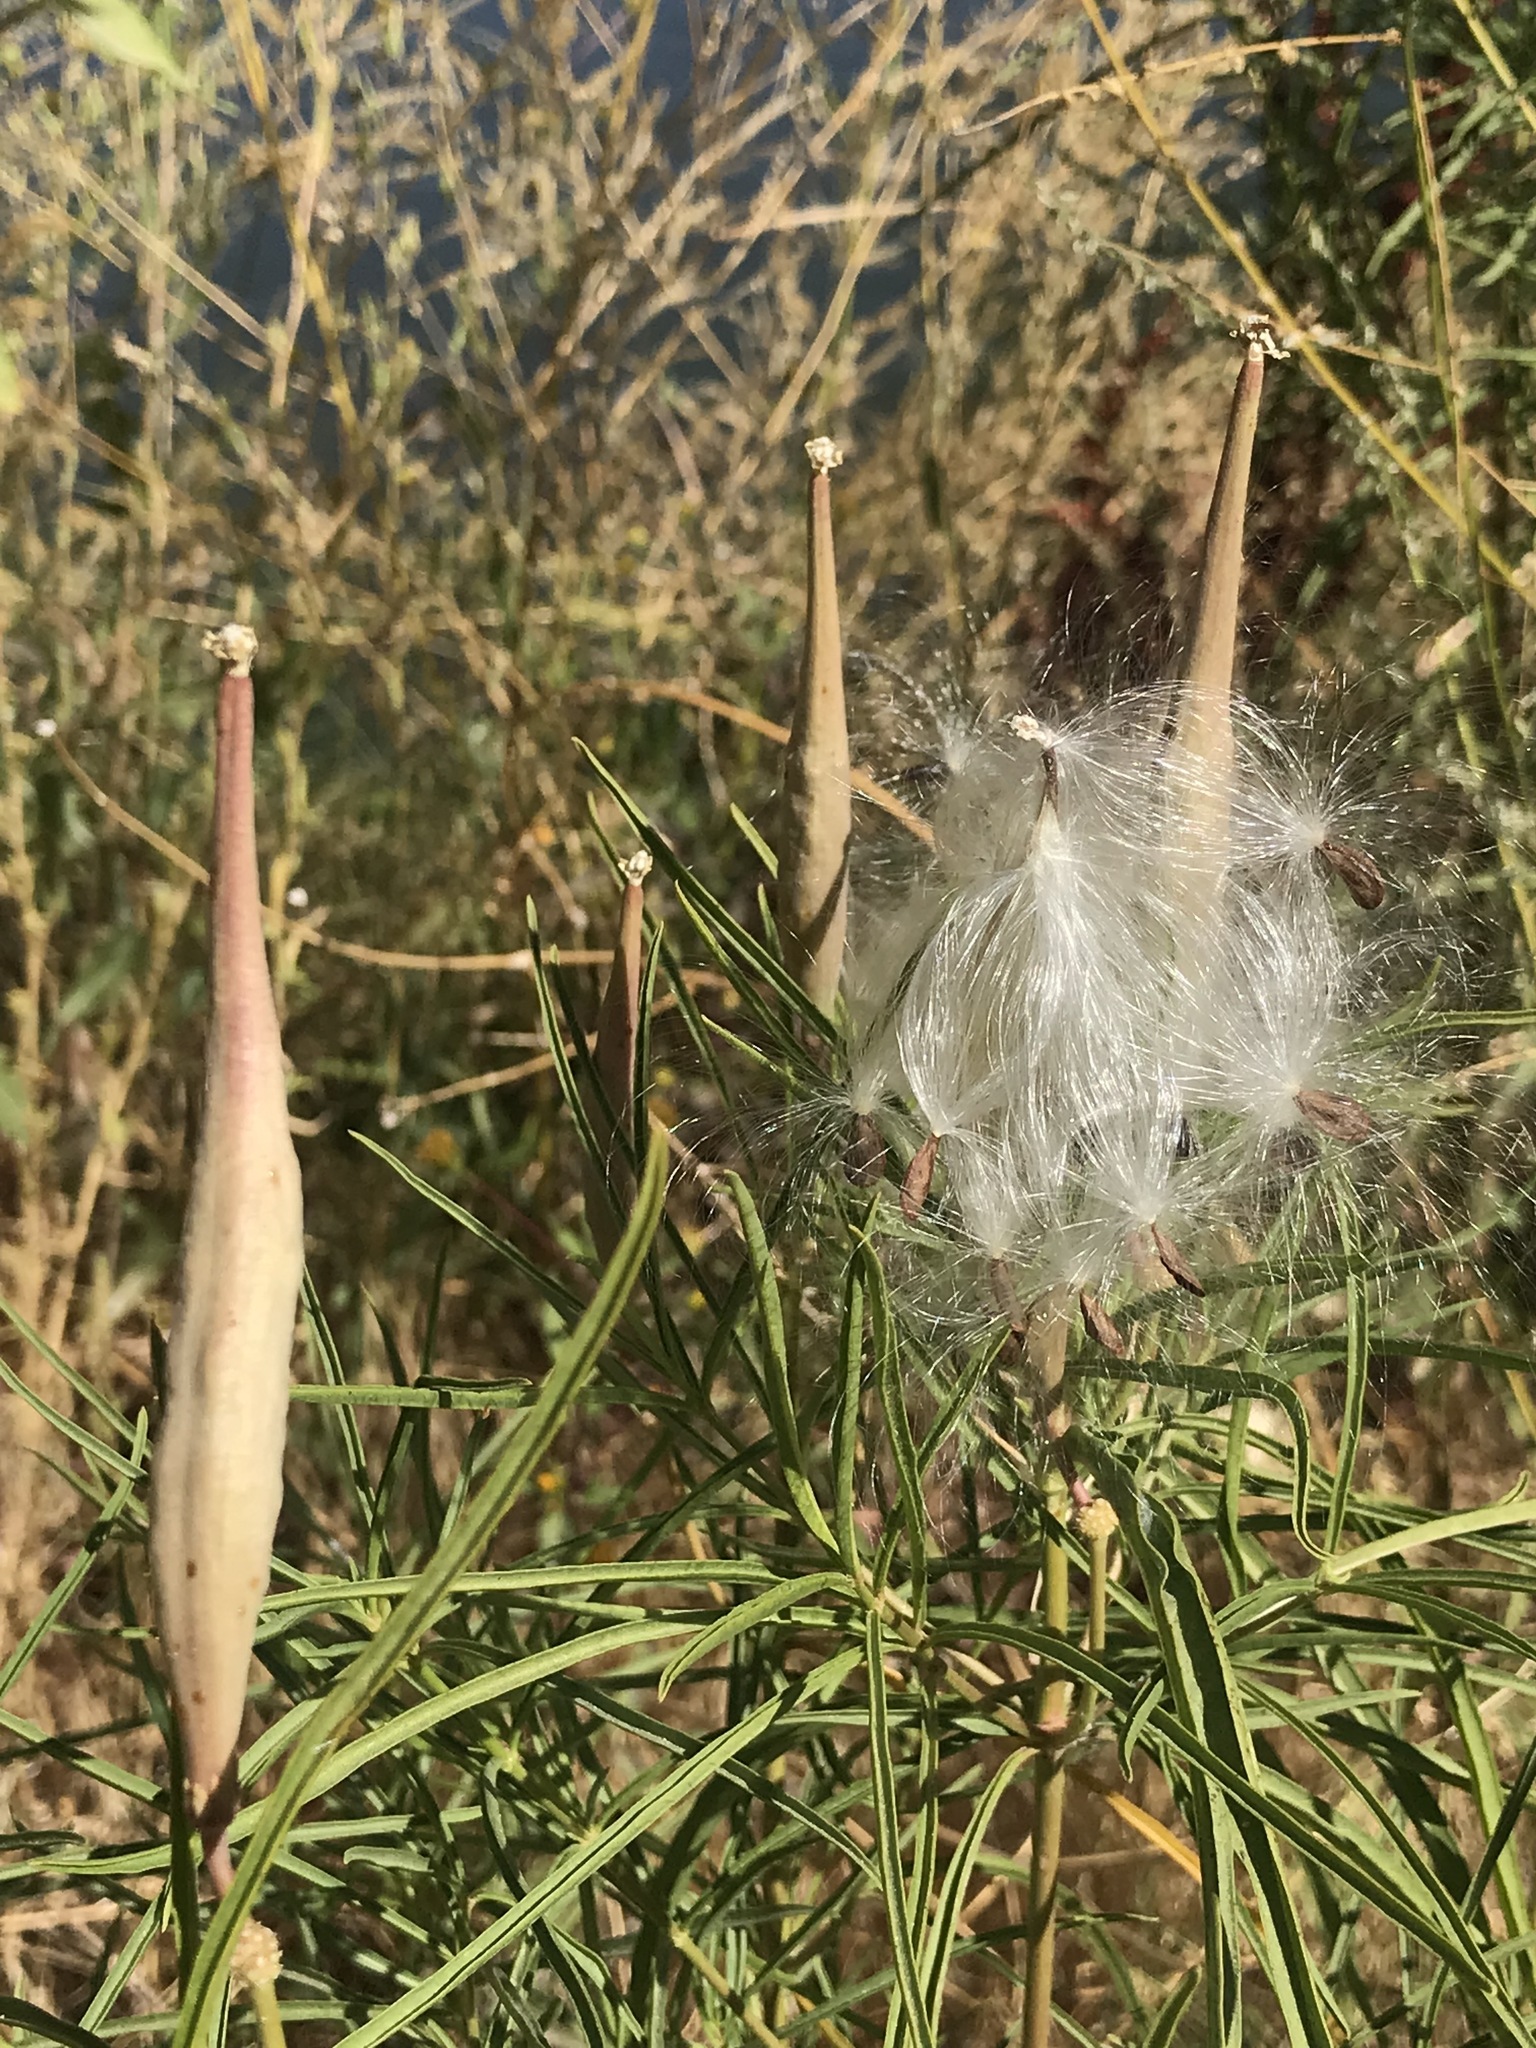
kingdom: Plantae
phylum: Tracheophyta
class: Magnoliopsida
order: Gentianales
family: Apocynaceae
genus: Asclepias
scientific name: Asclepias fascicularis
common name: Mexican milkweed
